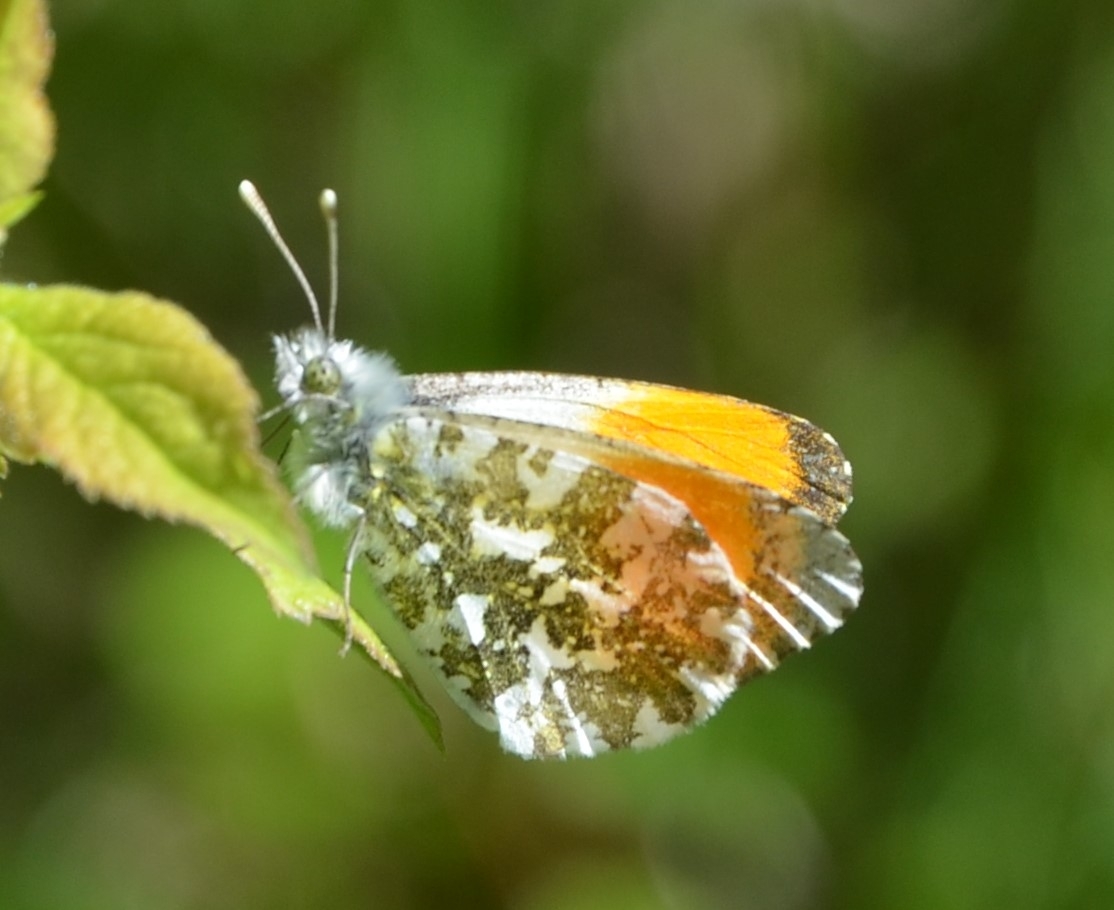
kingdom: Animalia
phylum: Arthropoda
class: Insecta
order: Lepidoptera
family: Pieridae
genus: Anthocharis
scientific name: Anthocharis cardamines
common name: Orange-tip
